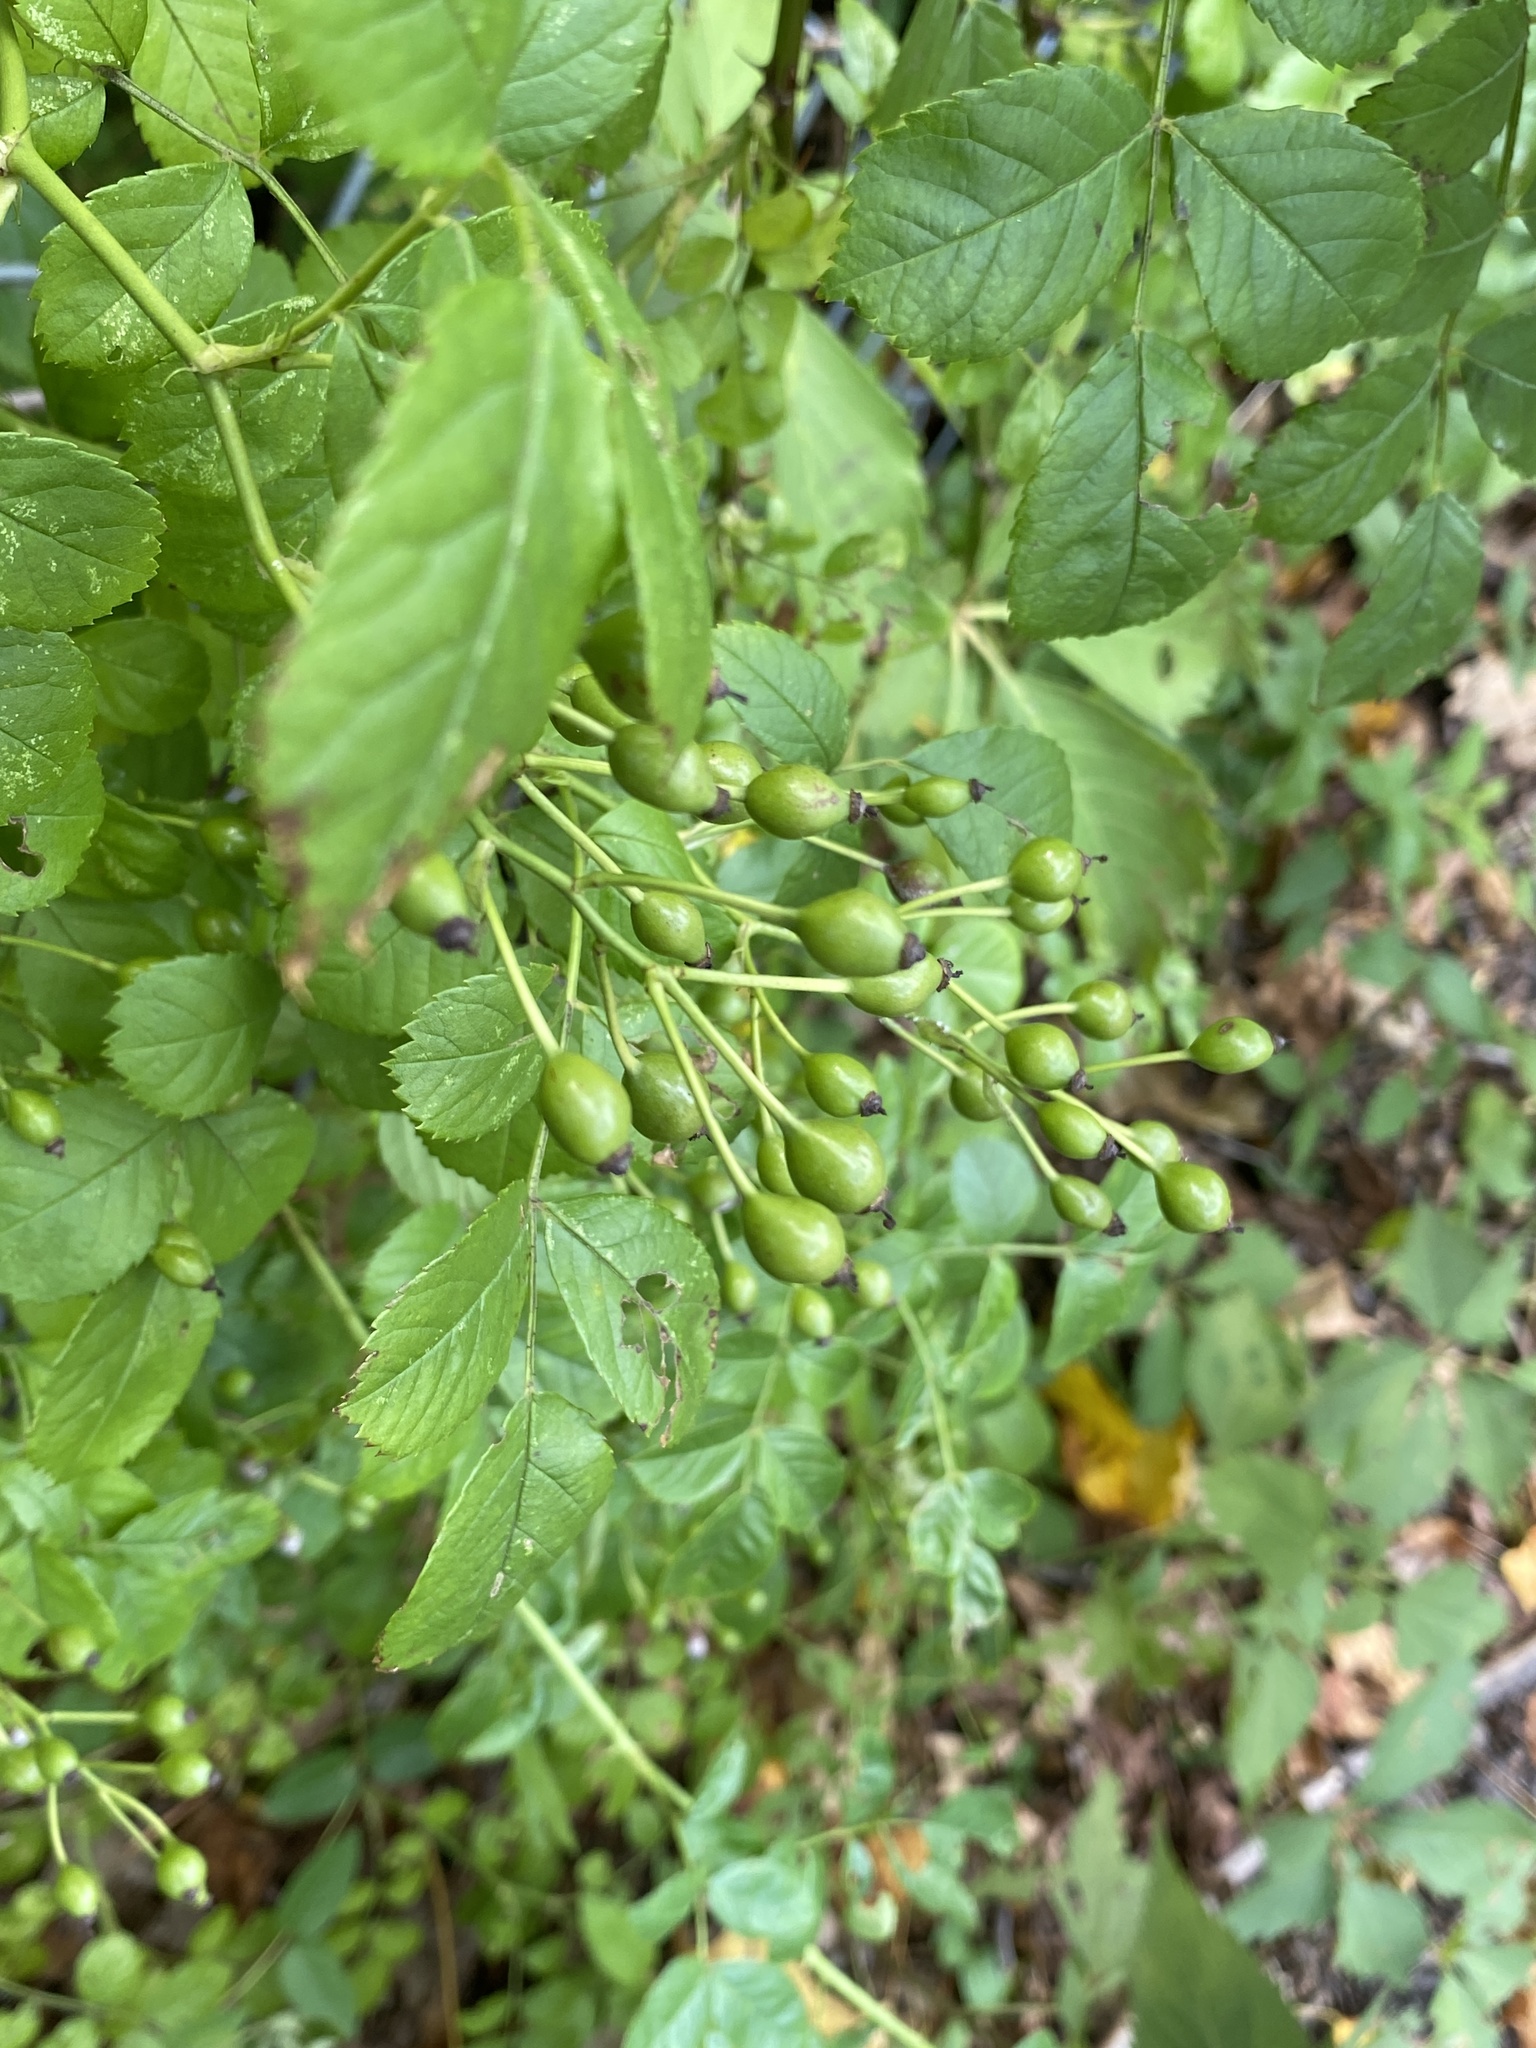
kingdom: Plantae
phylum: Tracheophyta
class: Magnoliopsida
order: Rosales
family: Rosaceae
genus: Rosa
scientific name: Rosa multiflora
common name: Multiflora rose
